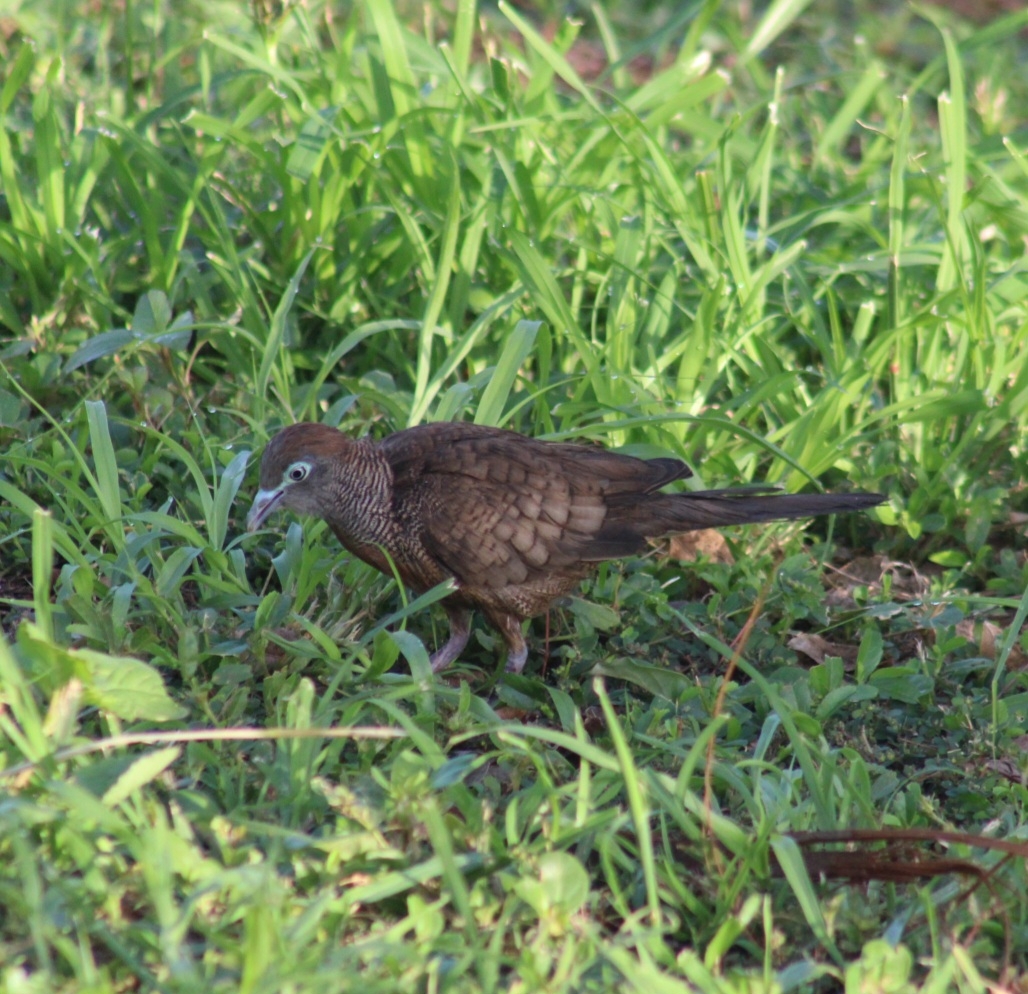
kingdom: Animalia
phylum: Chordata
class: Aves
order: Columbiformes
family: Columbidae
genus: Geopelia
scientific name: Geopelia striata
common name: Zebra dove
